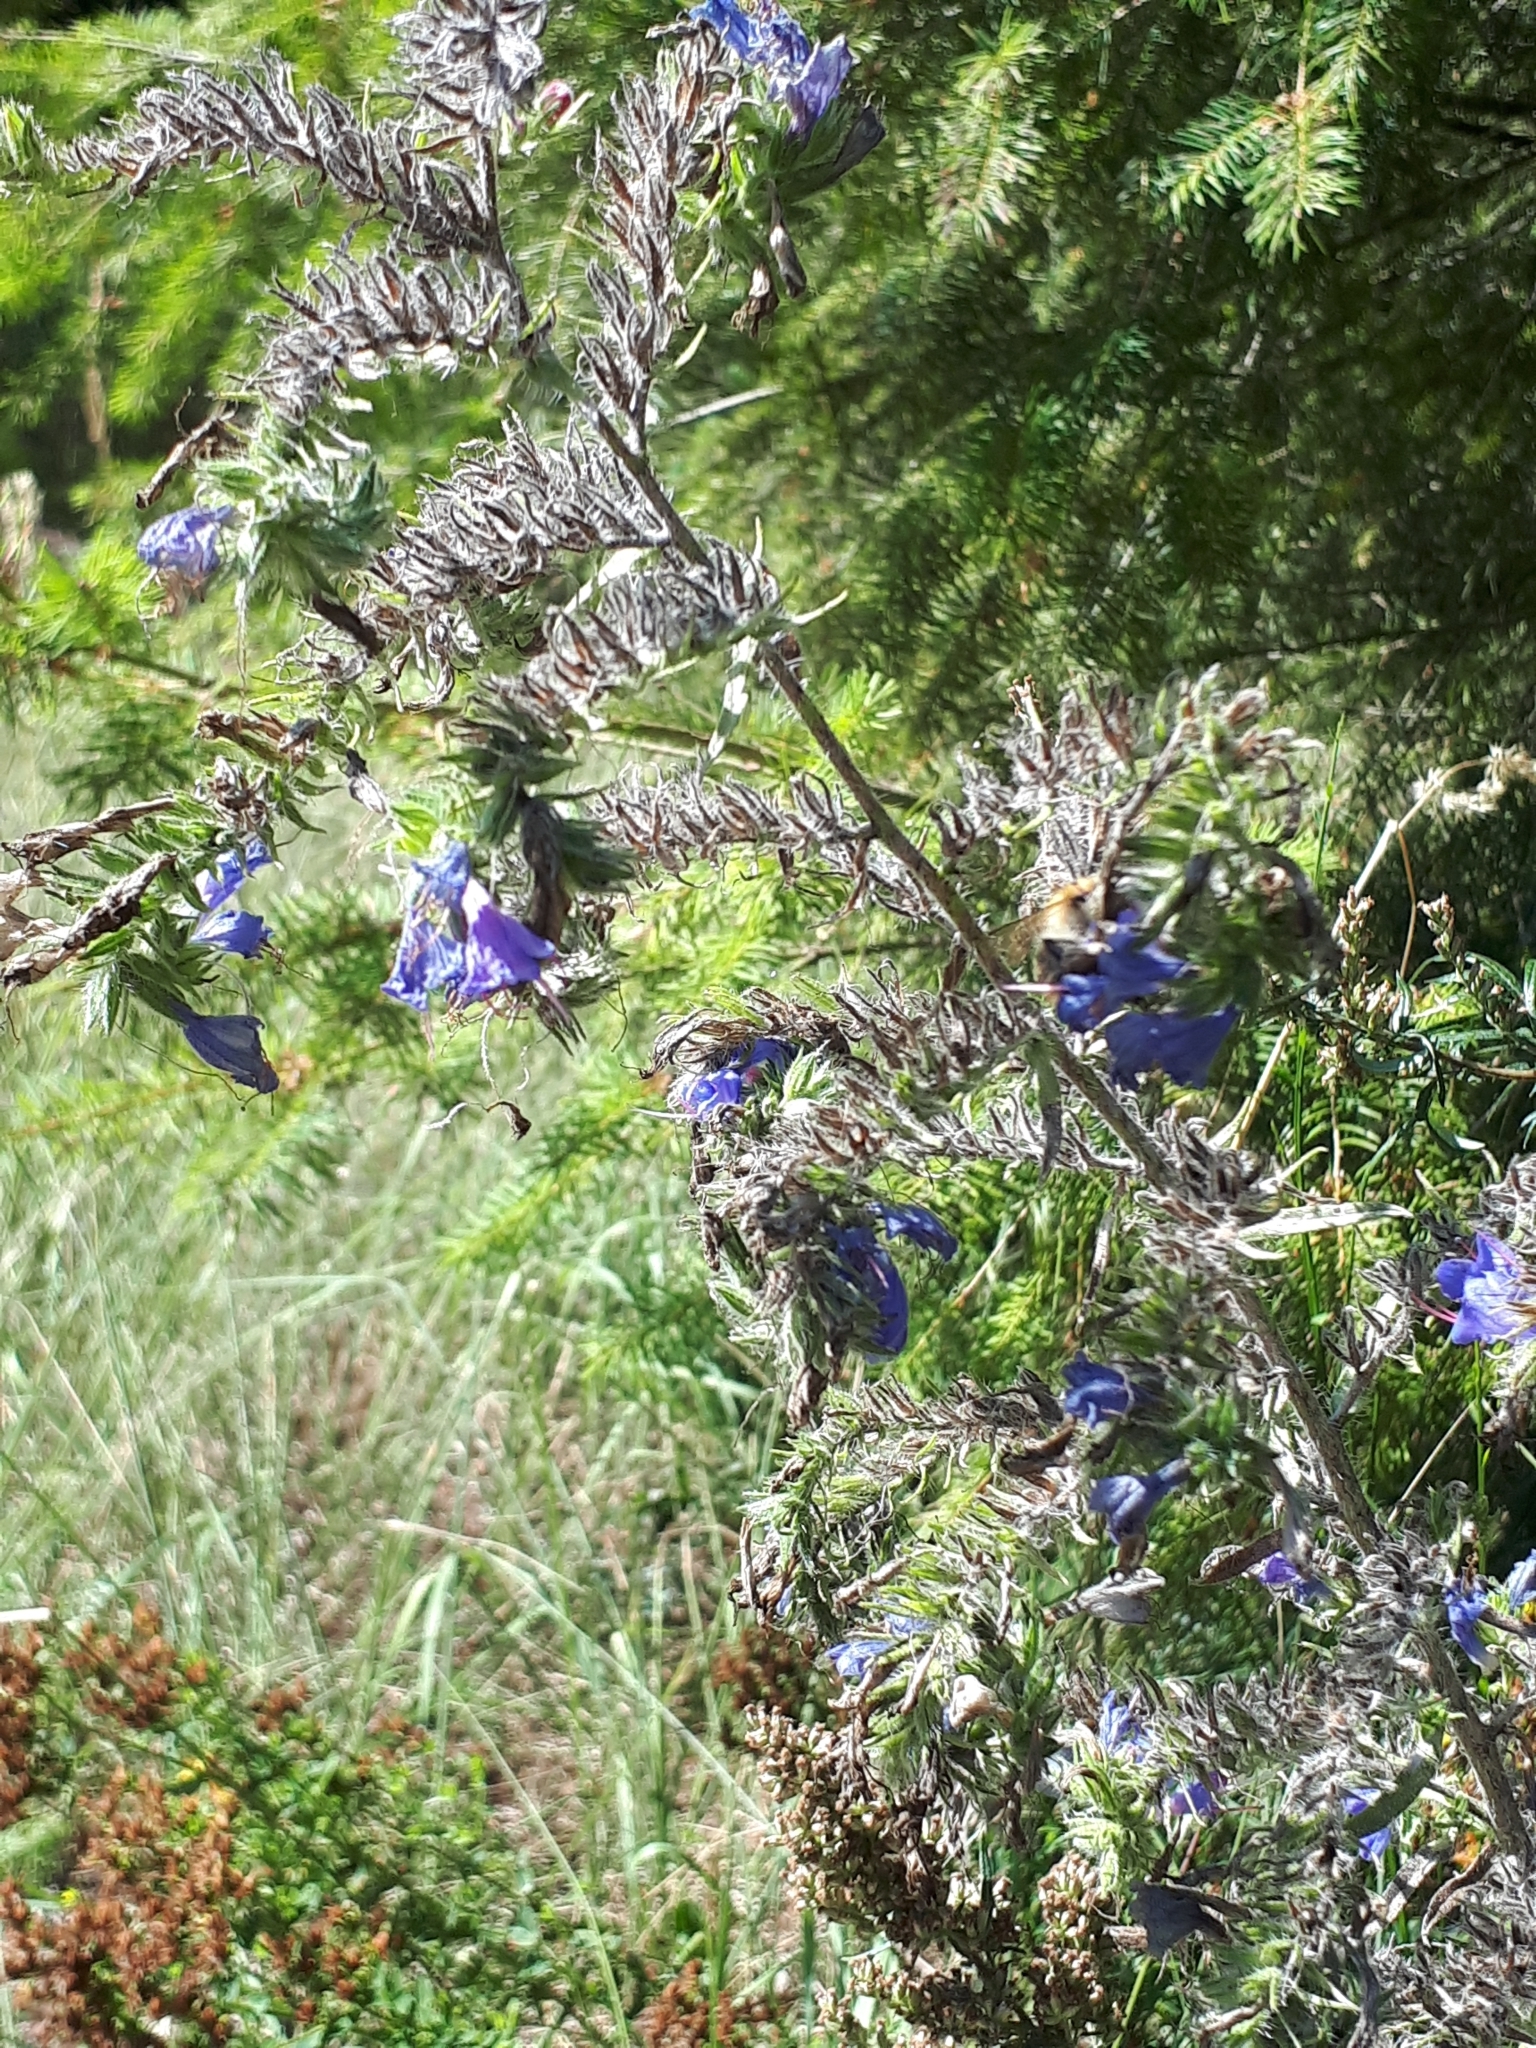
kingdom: Plantae
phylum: Tracheophyta
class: Magnoliopsida
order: Boraginales
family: Boraginaceae
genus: Echium
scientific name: Echium vulgare
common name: Common viper's bugloss
